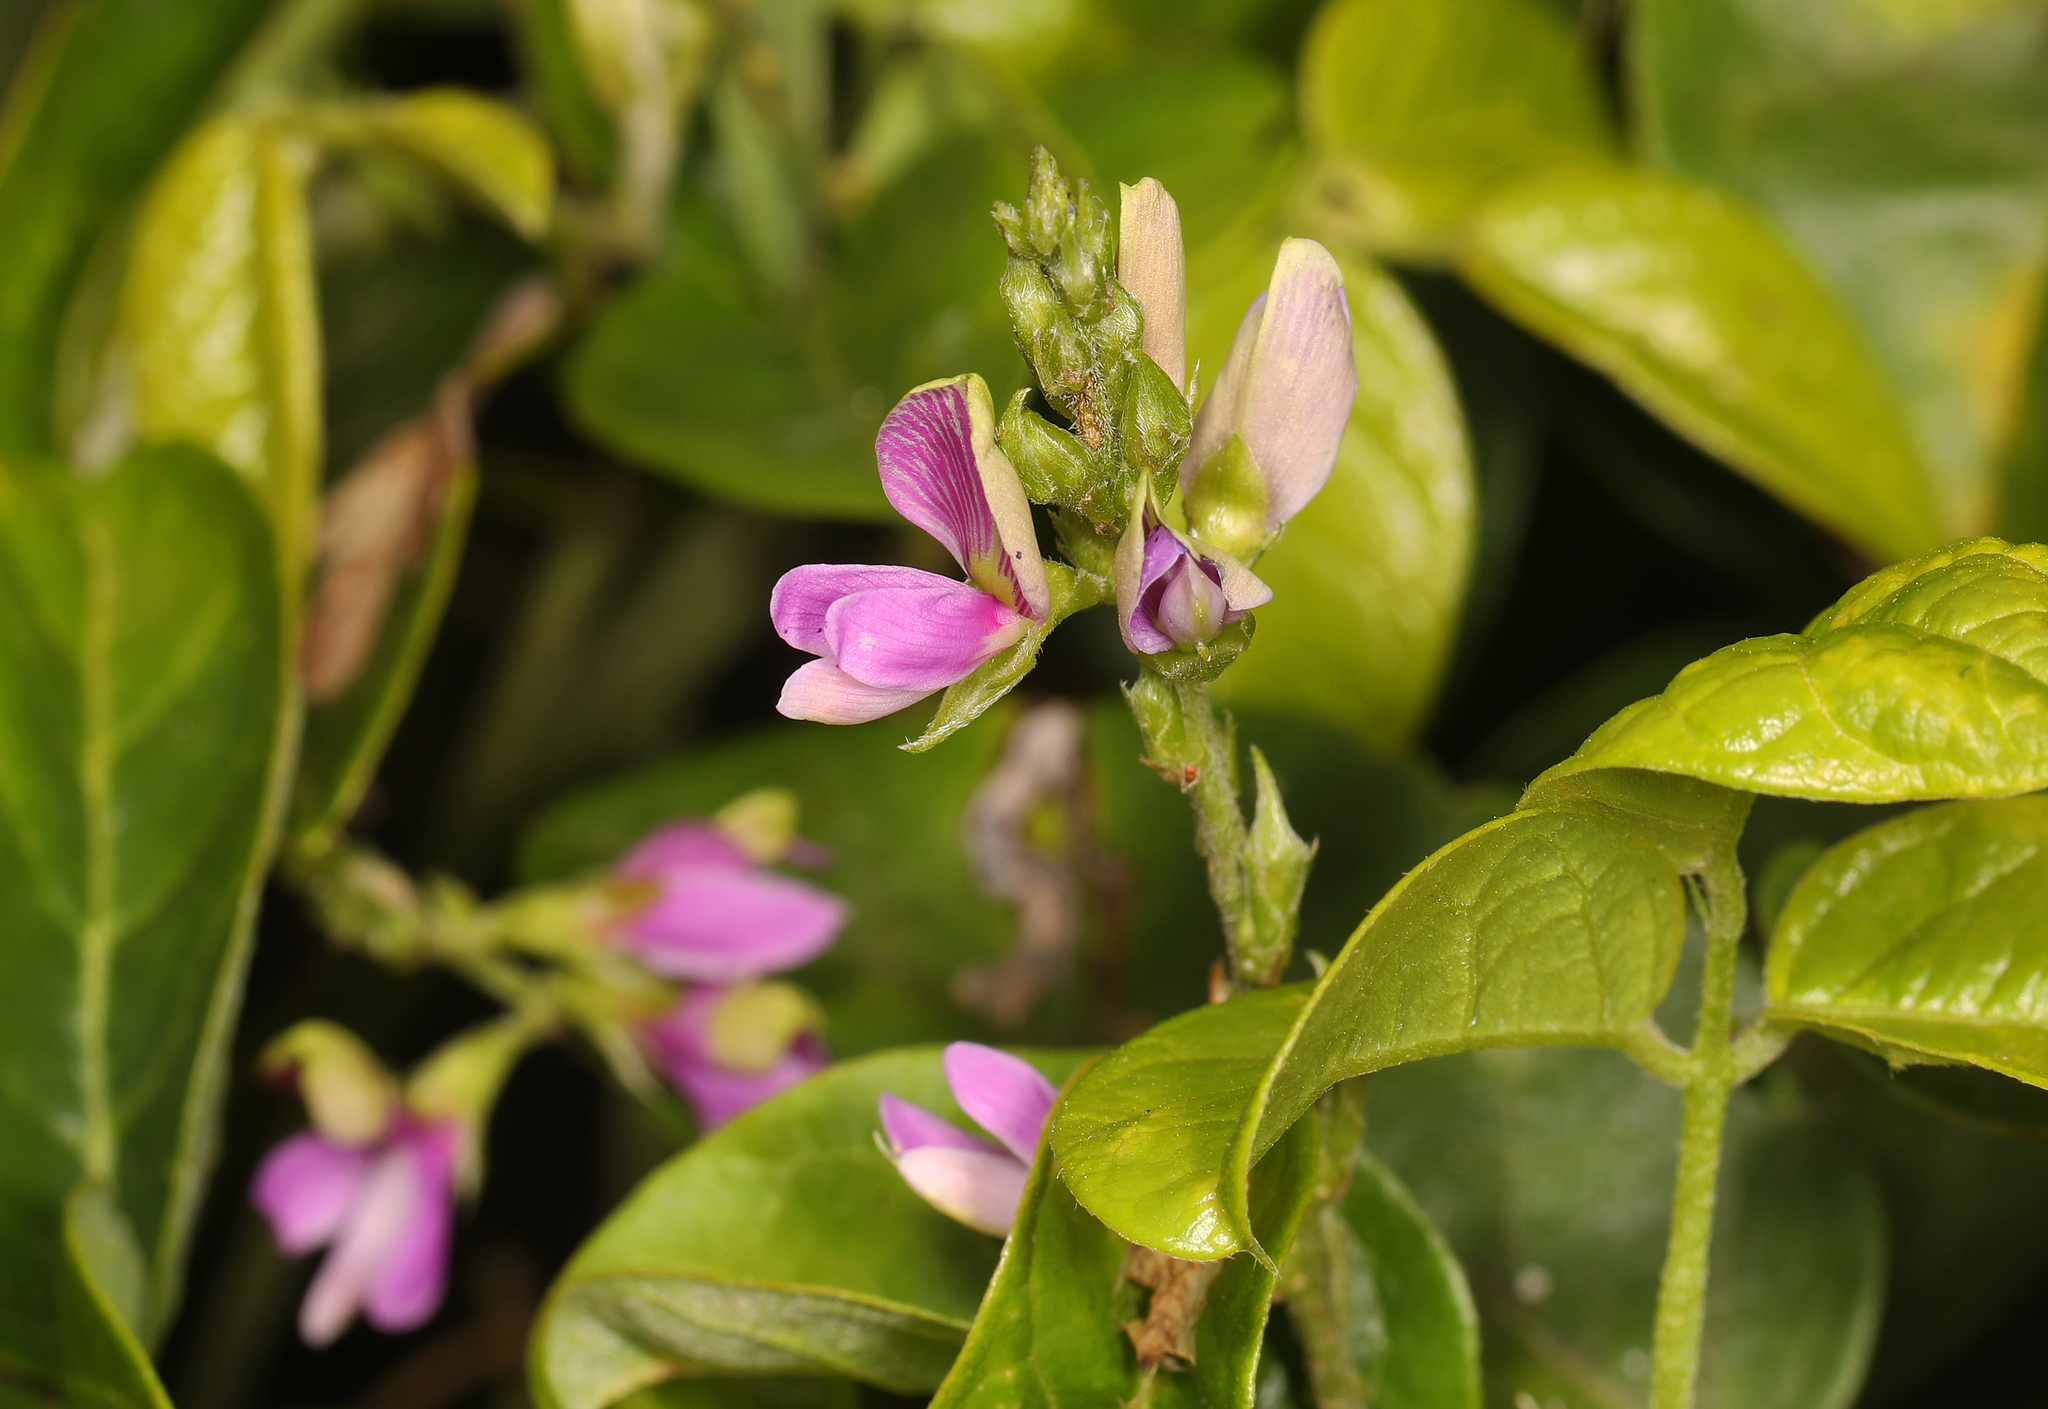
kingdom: Plantae
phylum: Tracheophyta
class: Magnoliopsida
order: Fabales
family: Fabaceae
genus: Galactia
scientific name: Galactia striata
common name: Florida hammock milkpea
